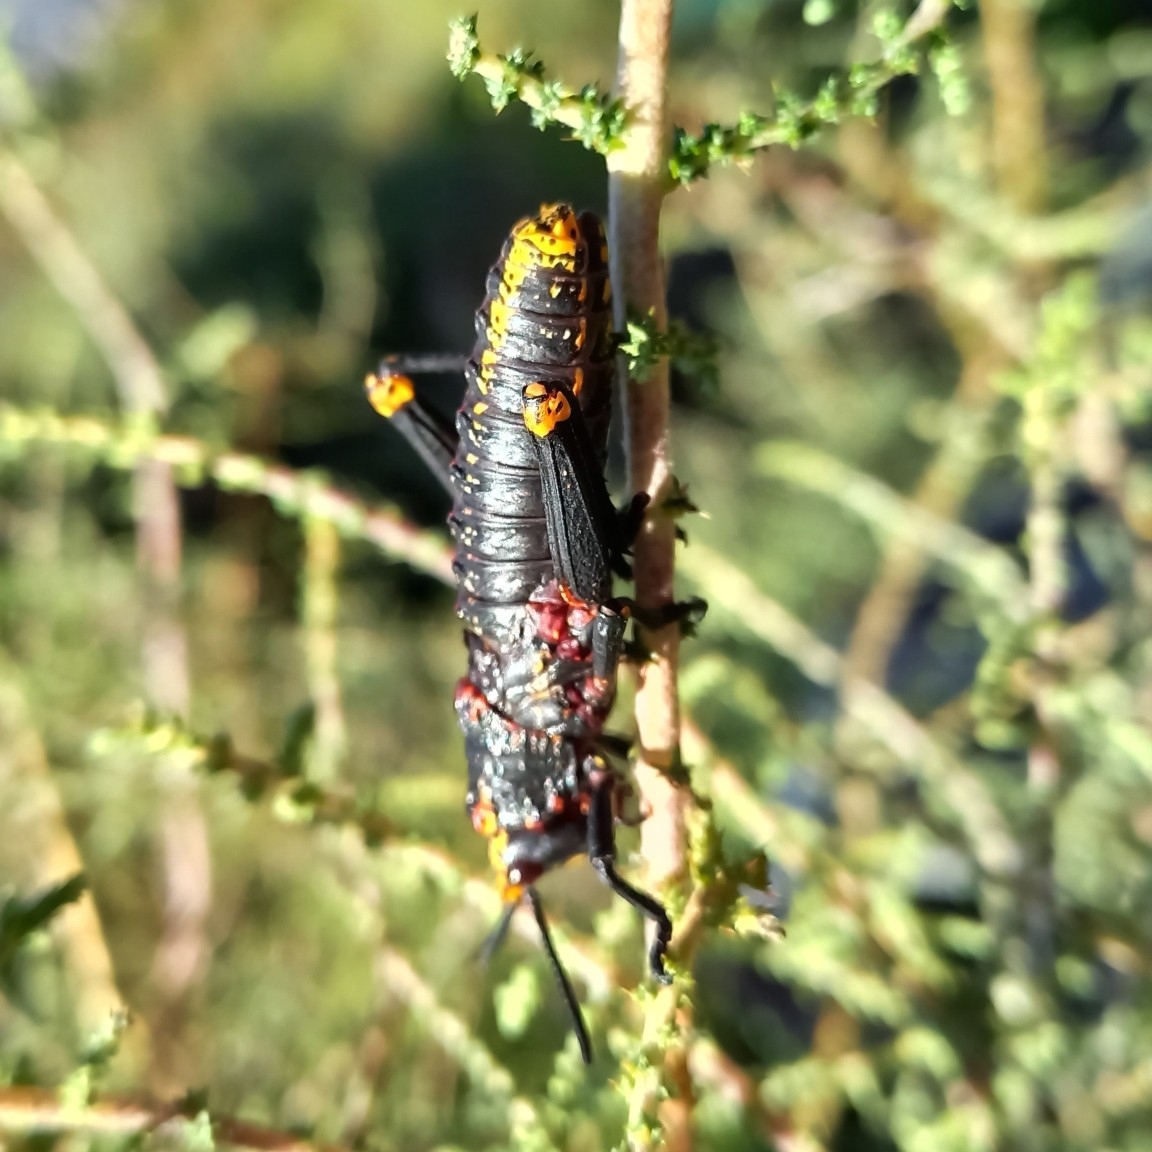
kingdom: Animalia
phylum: Arthropoda
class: Insecta
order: Orthoptera
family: Pyrgomorphidae
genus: Dictyophorus
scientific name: Dictyophorus spumans
